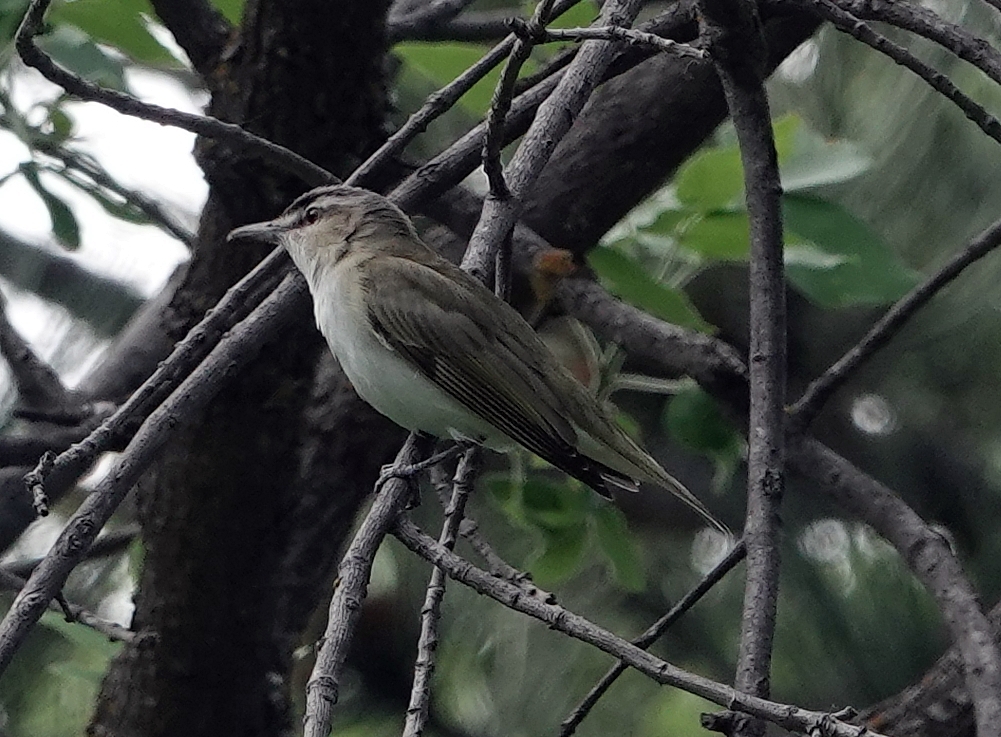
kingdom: Animalia
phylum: Chordata
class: Aves
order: Passeriformes
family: Vireonidae
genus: Vireo
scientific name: Vireo olivaceus
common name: Red-eyed vireo
